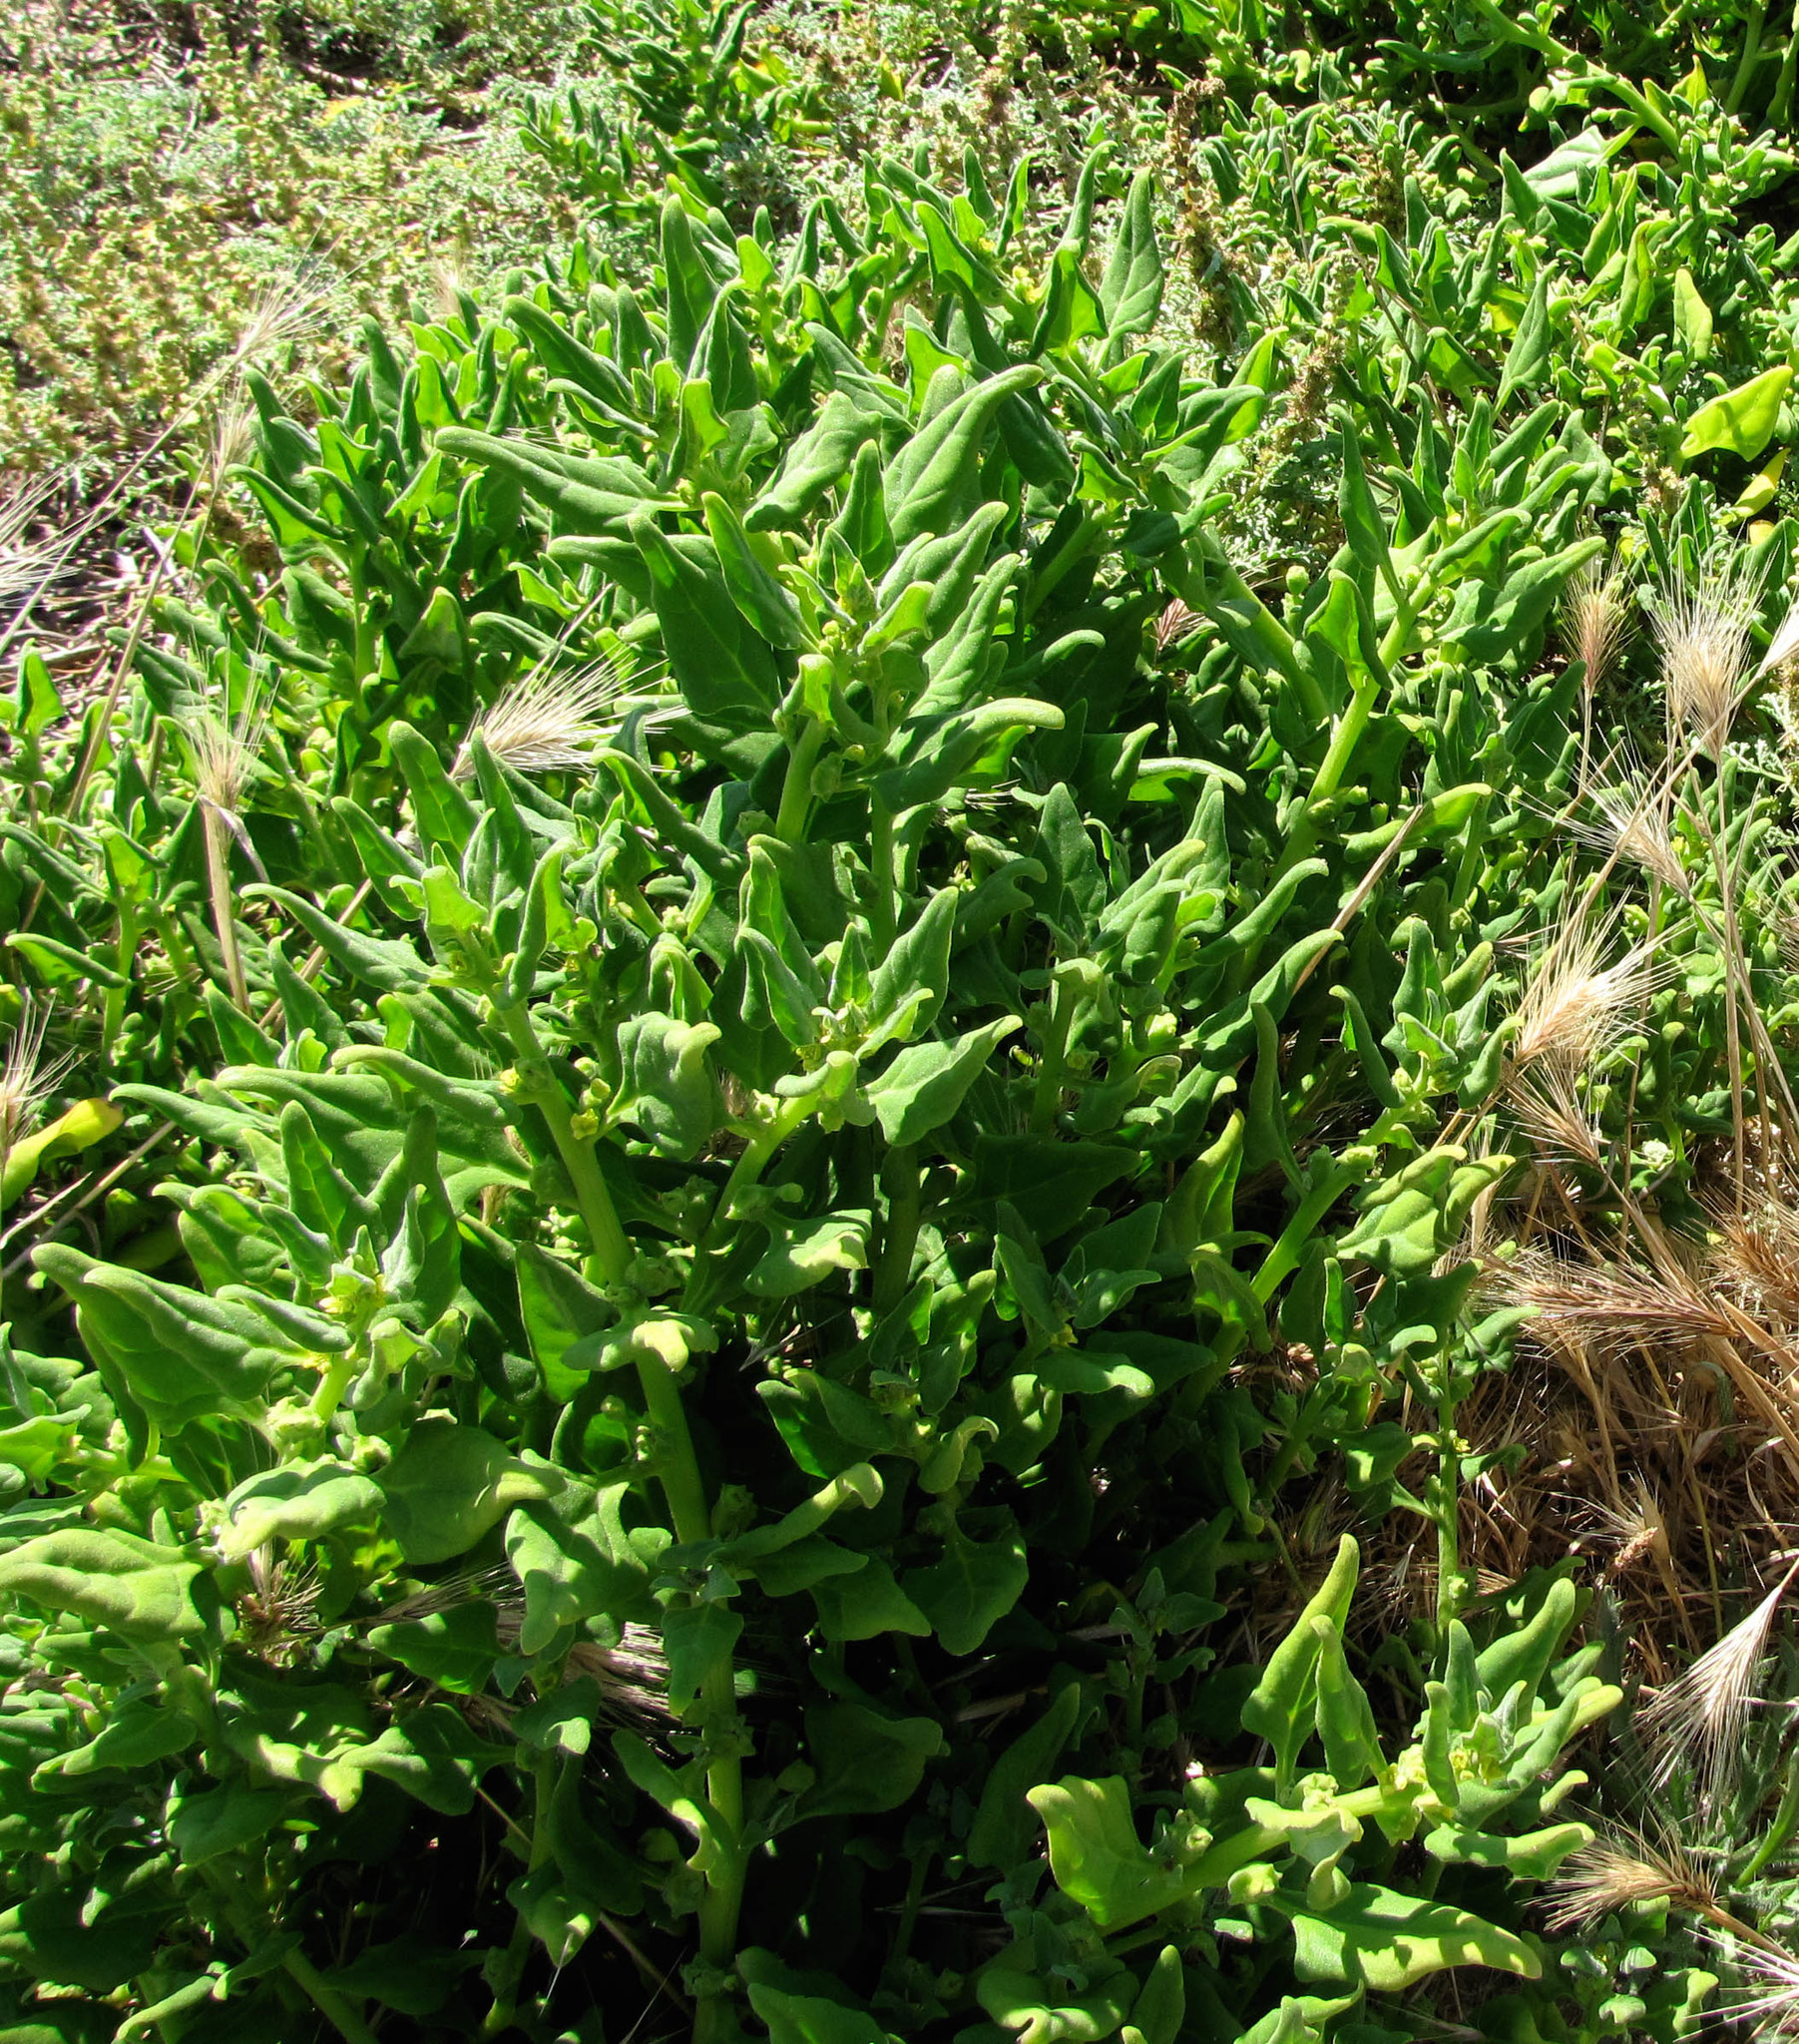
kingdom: Plantae
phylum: Tracheophyta
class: Magnoliopsida
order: Caryophyllales
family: Aizoaceae
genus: Tetragonia
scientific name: Tetragonia tetragonoides
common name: New zealand-spinach
